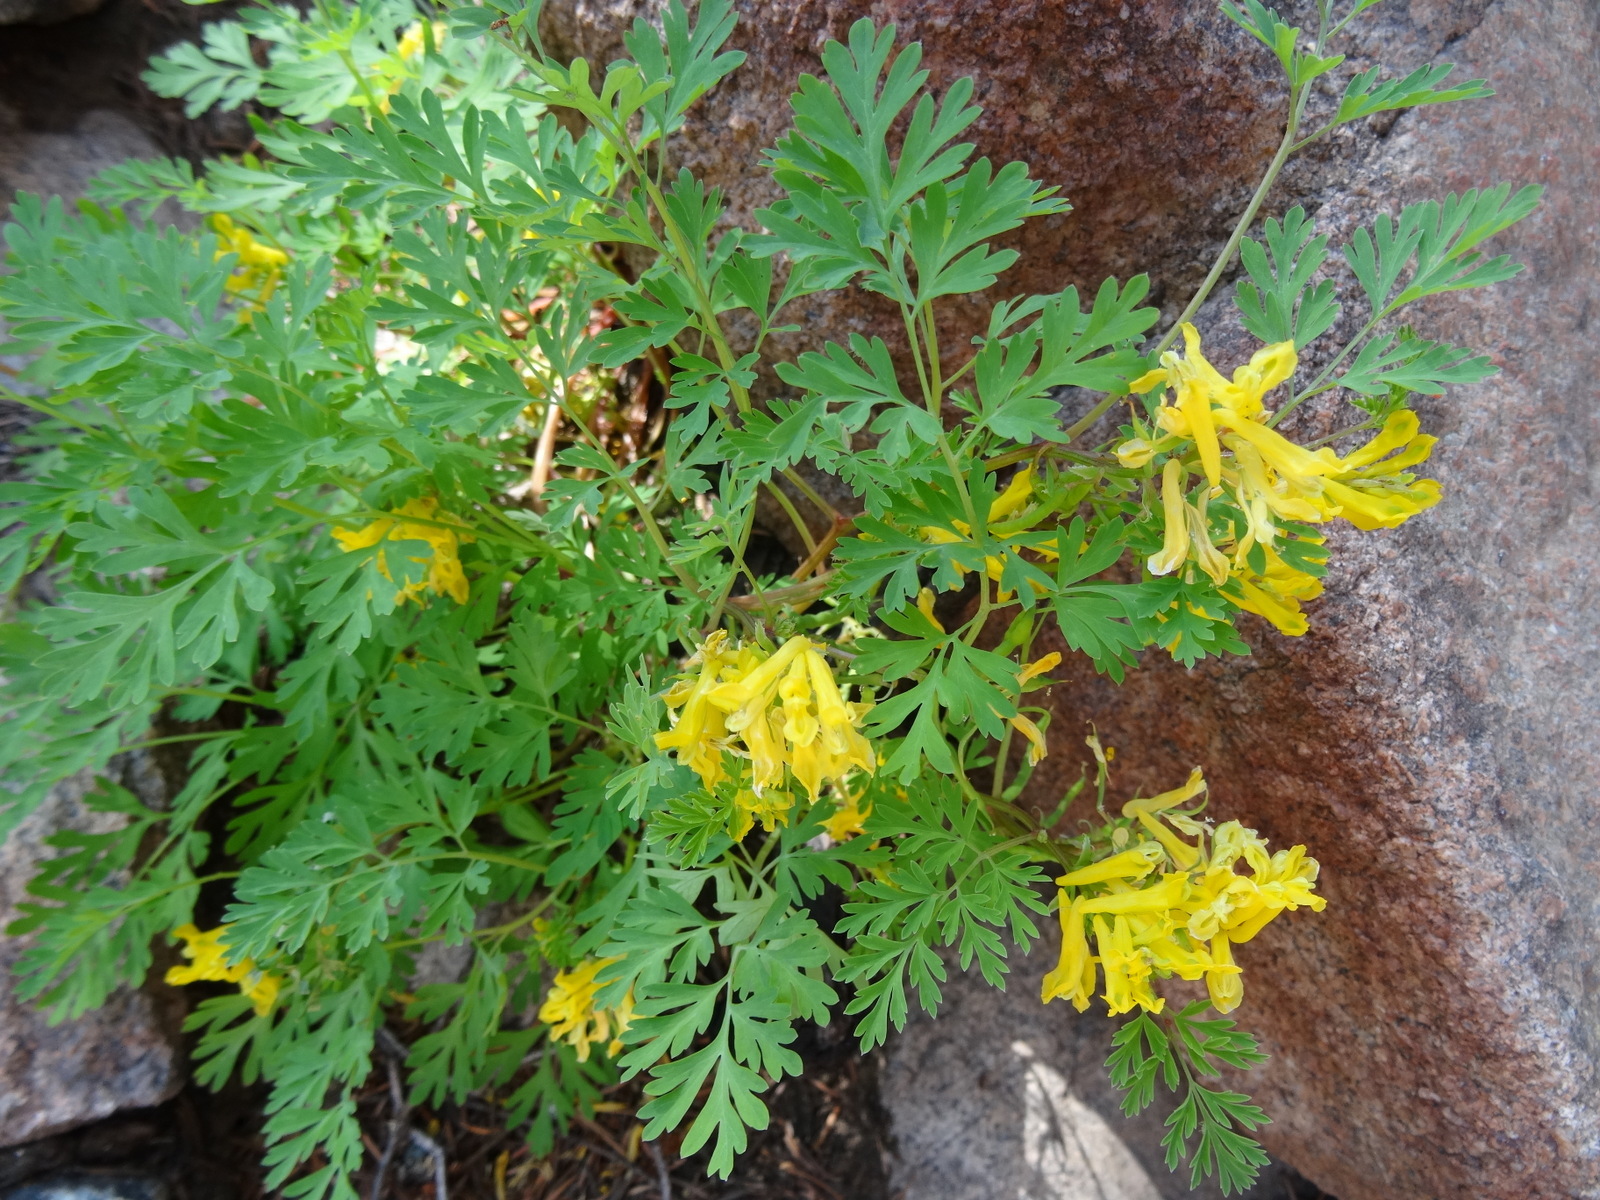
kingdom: Plantae
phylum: Tracheophyta
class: Magnoliopsida
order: Ranunculales
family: Papaveraceae
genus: Corydalis
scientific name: Corydalis aurea
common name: Golden corydalis
